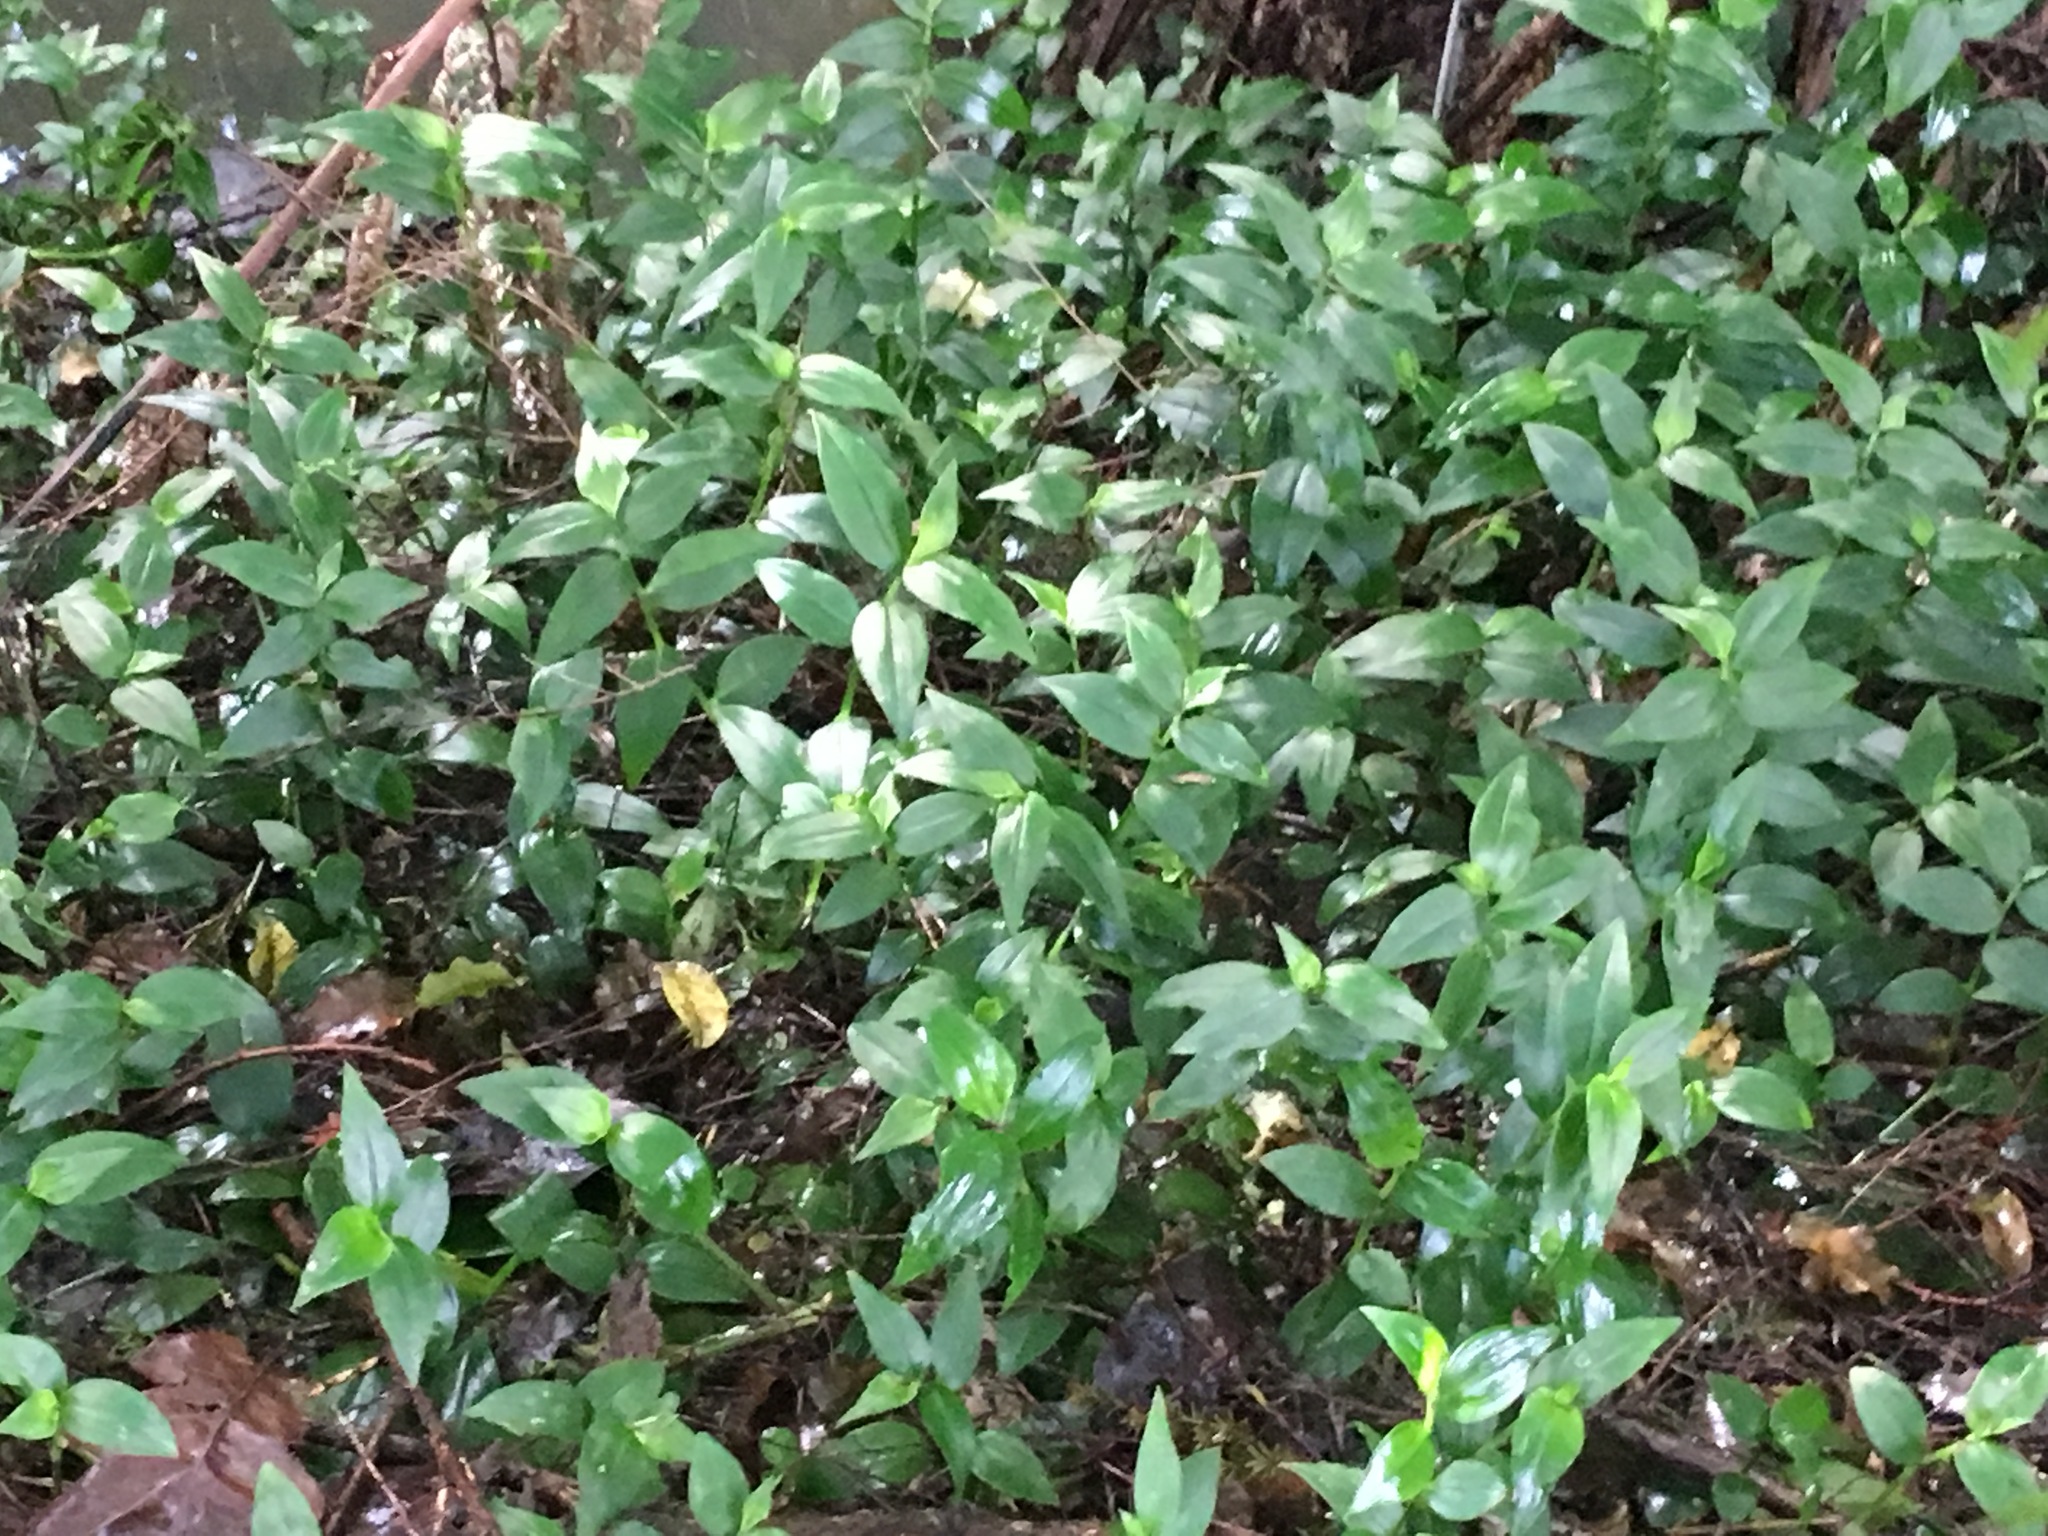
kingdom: Plantae
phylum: Tracheophyta
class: Liliopsida
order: Commelinales
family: Commelinaceae
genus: Tradescantia
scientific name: Tradescantia fluminensis
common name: Wandering-jew
